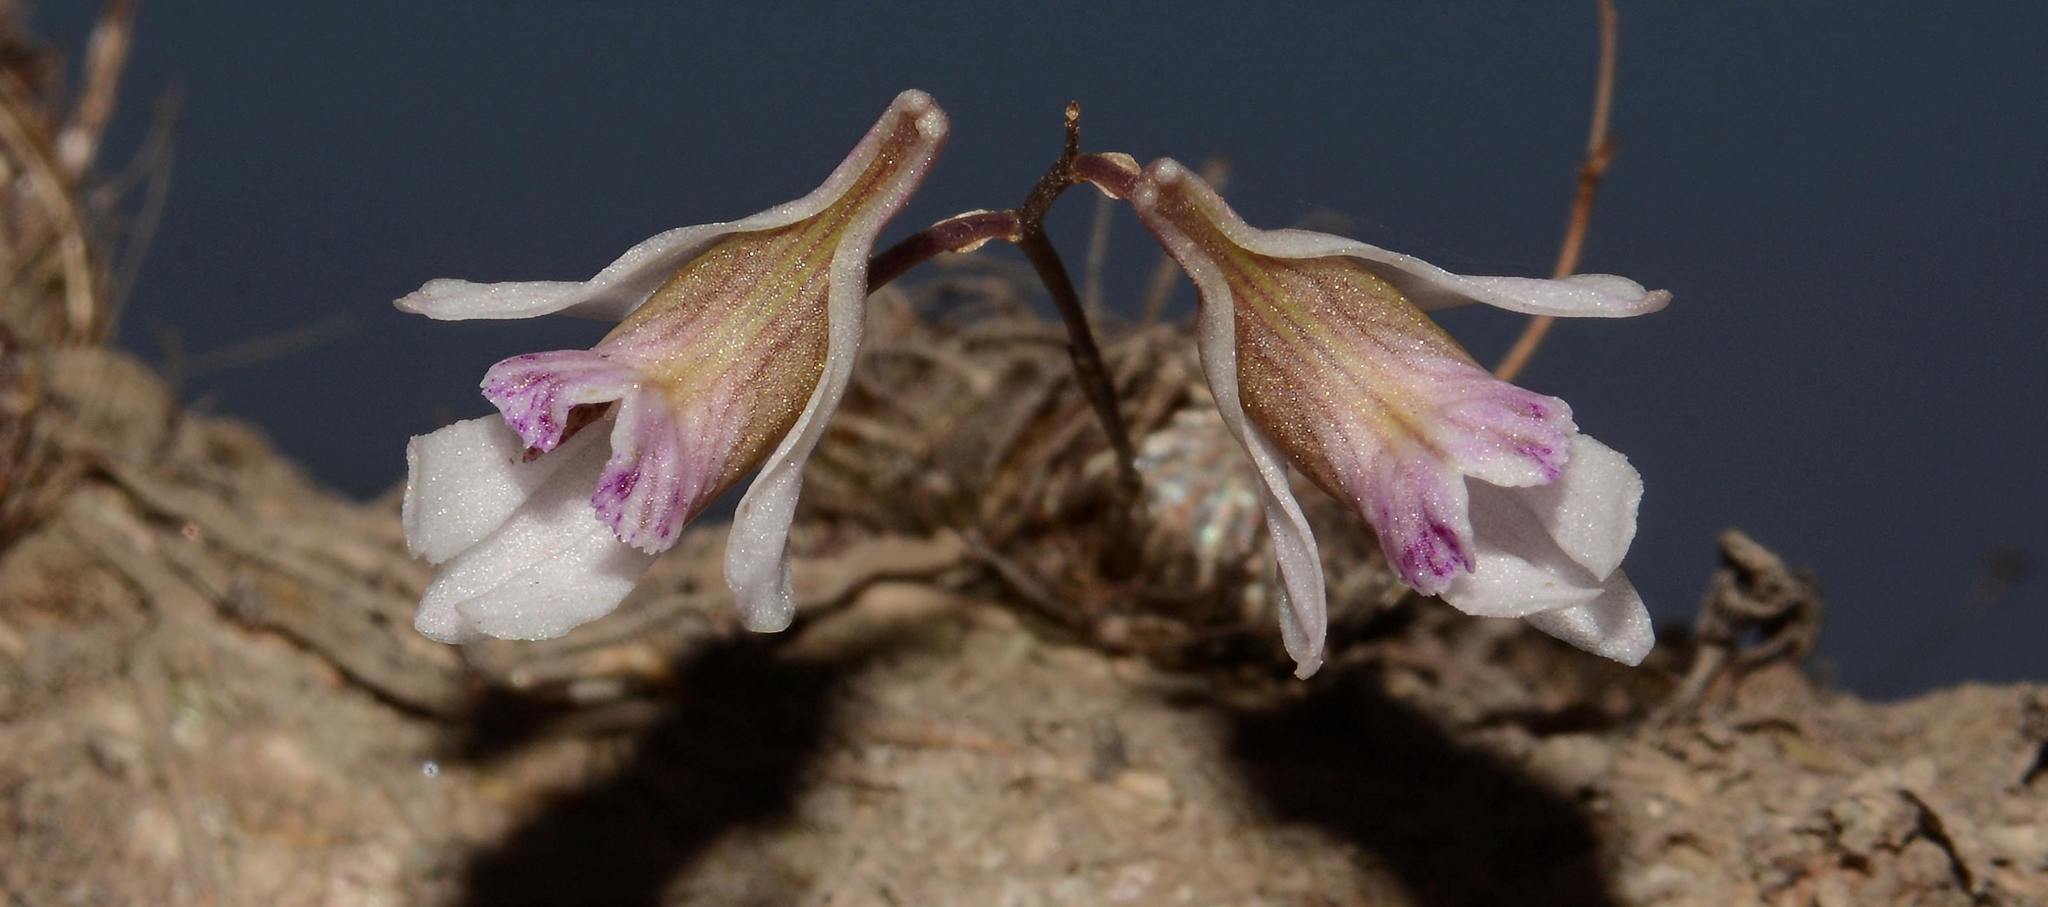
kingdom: Plantae
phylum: Tracheophyta
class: Liliopsida
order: Asparagales
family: Orchidaceae
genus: Dendrobium
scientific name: Dendrobium turbinatum
